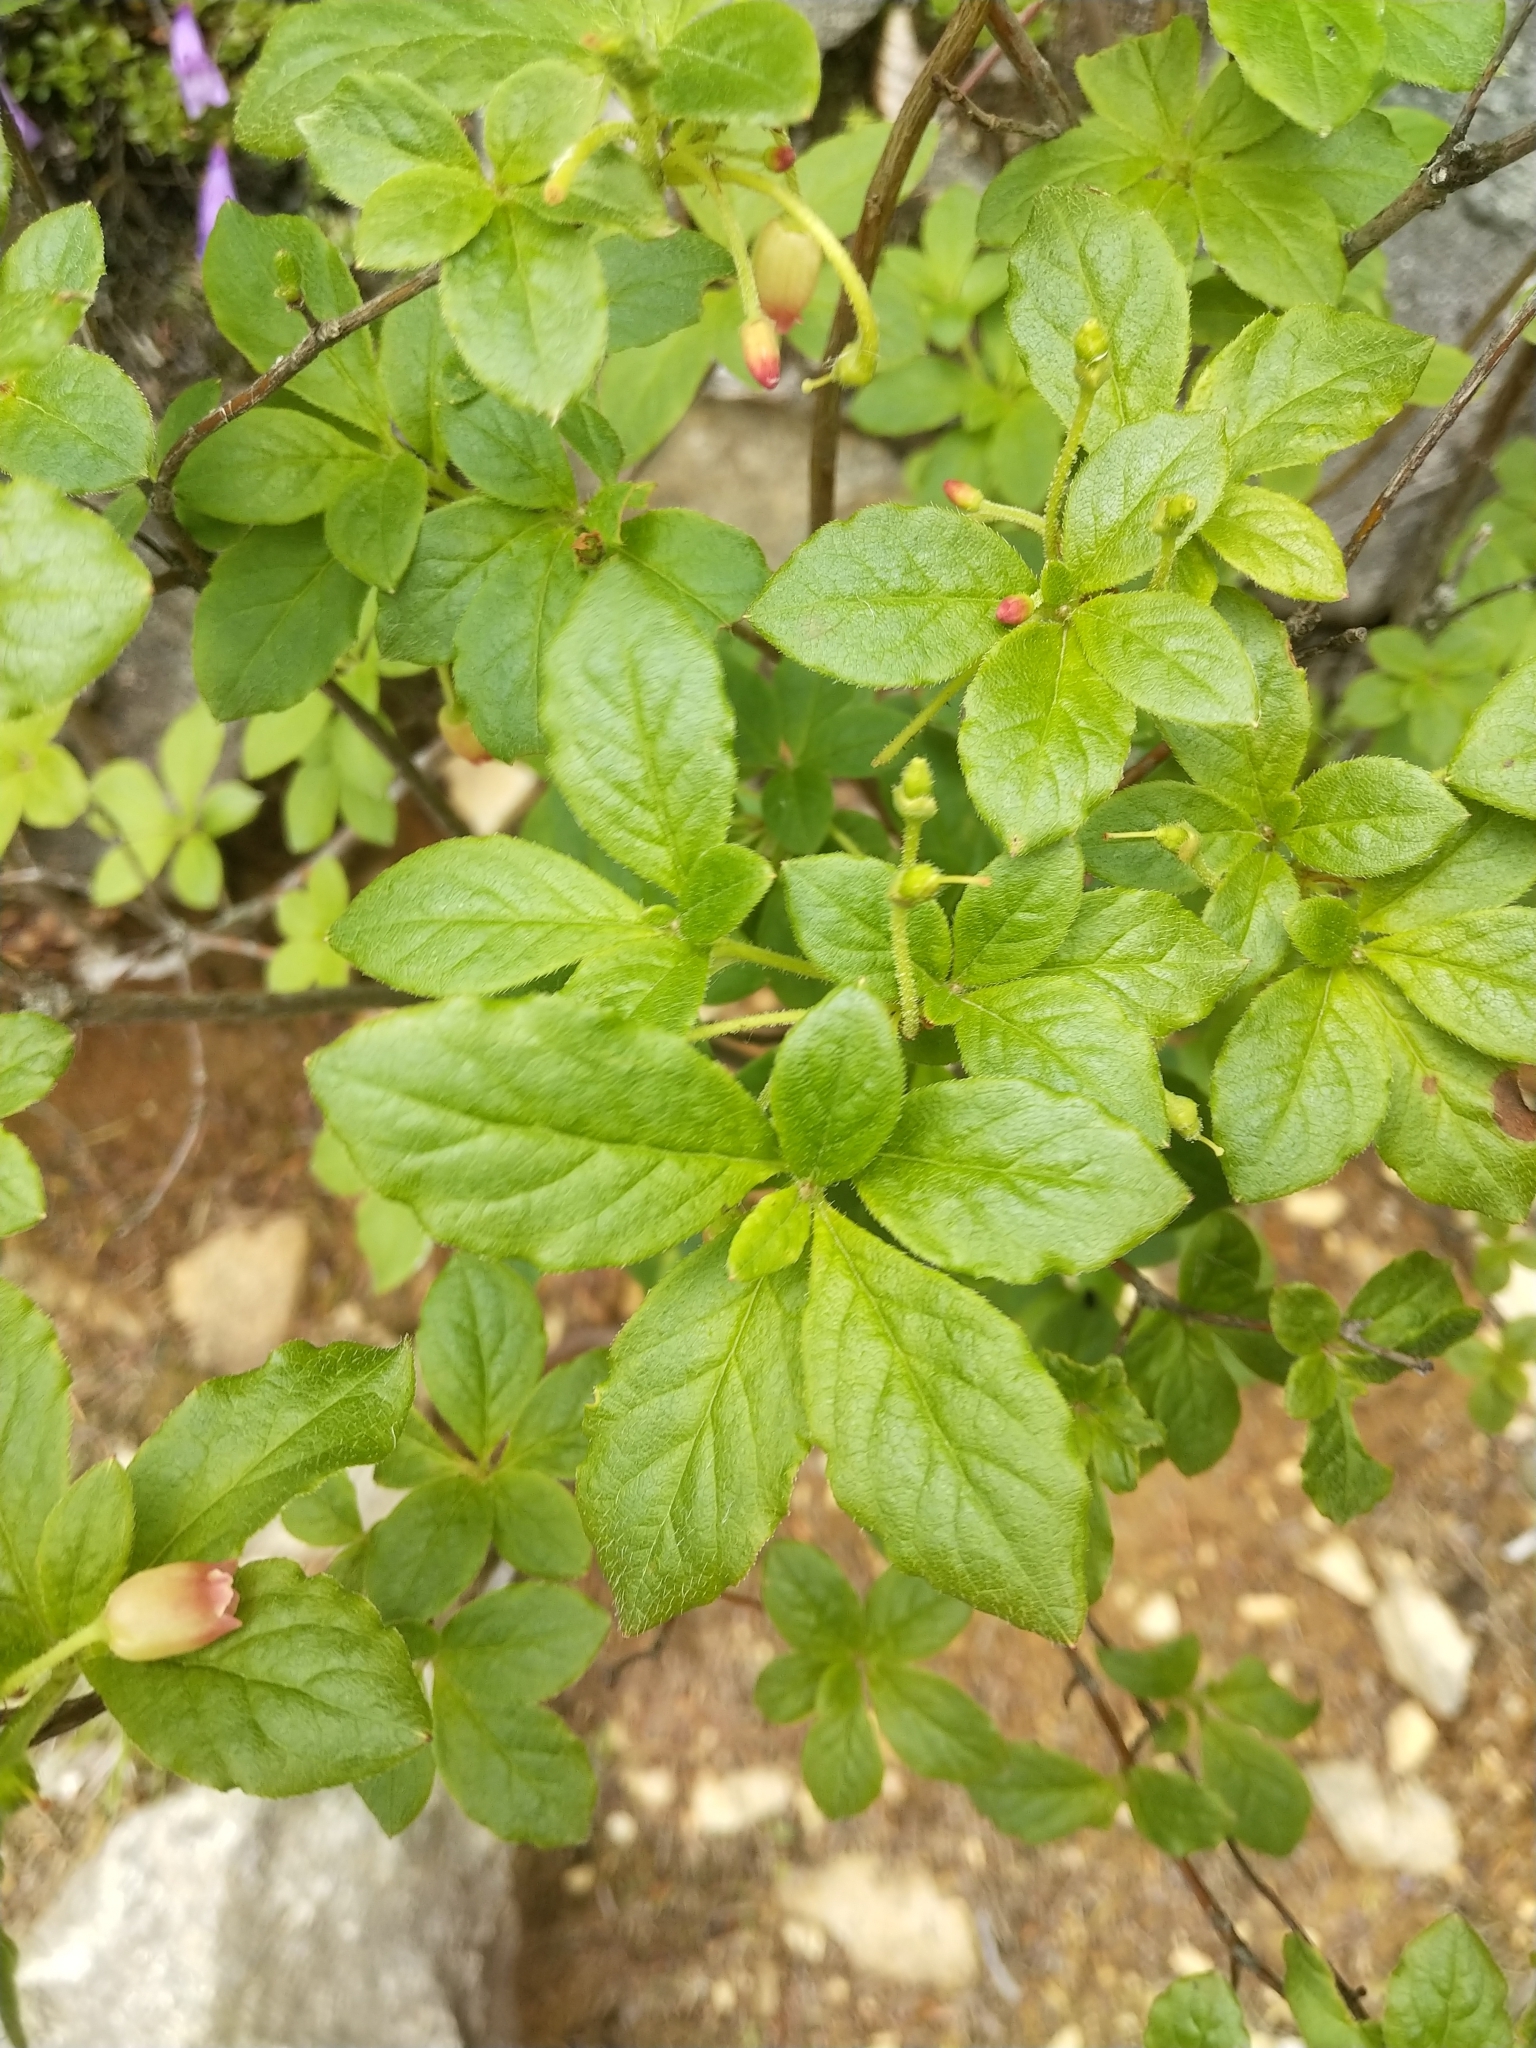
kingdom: Plantae
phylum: Tracheophyta
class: Magnoliopsida
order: Ericales
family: Ericaceae
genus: Rhododendron
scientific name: Rhododendron menziesii
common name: Pacific menziesia
